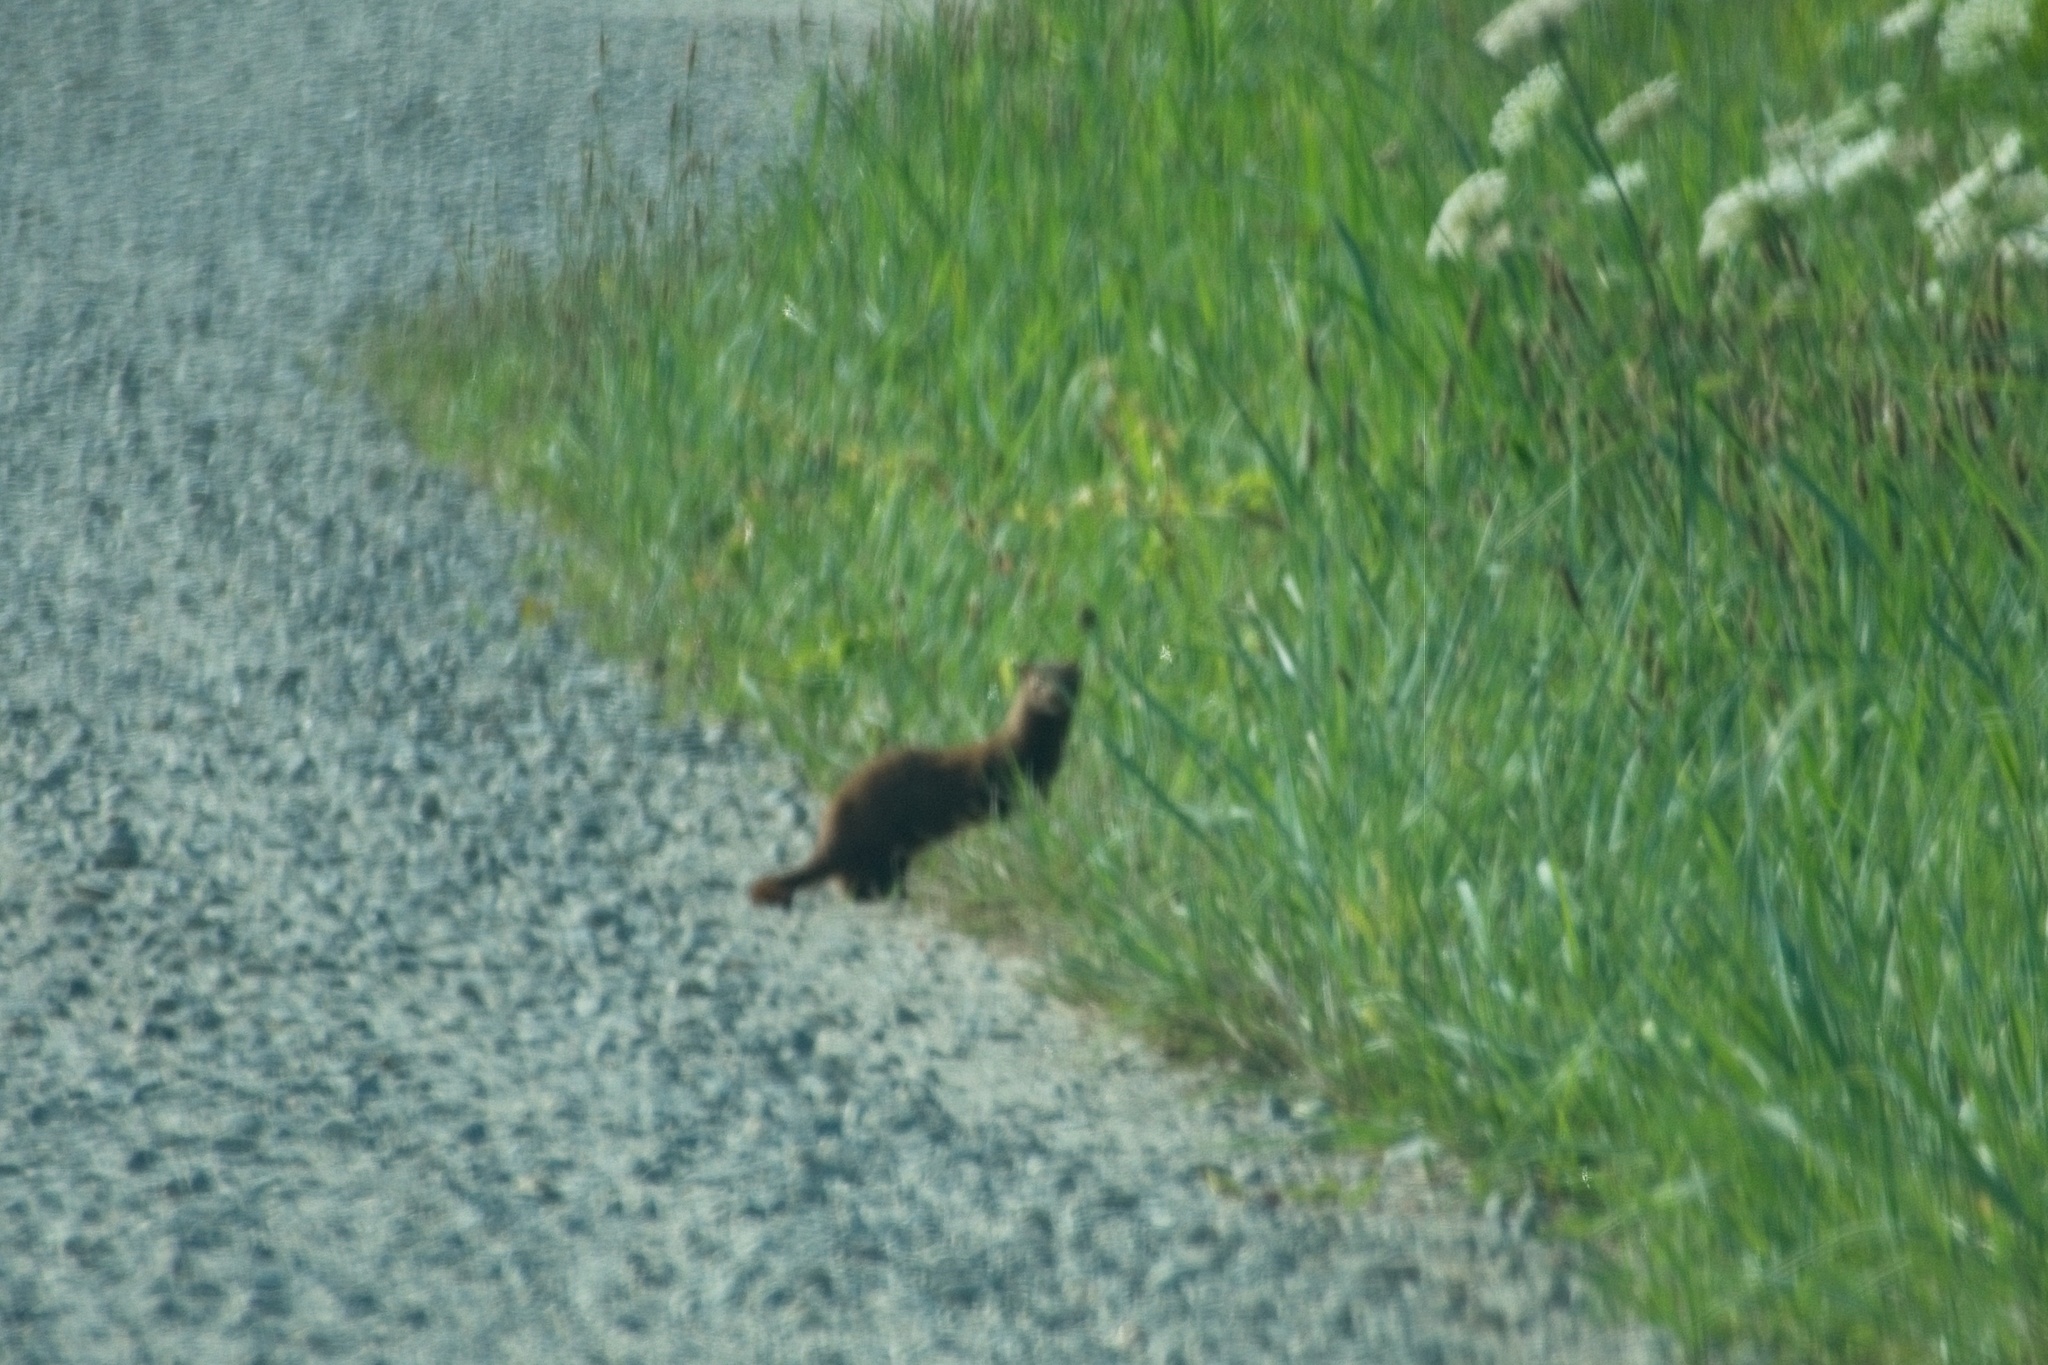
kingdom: Animalia
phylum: Chordata
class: Mammalia
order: Carnivora
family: Mustelidae
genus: Mustela
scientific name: Mustela
